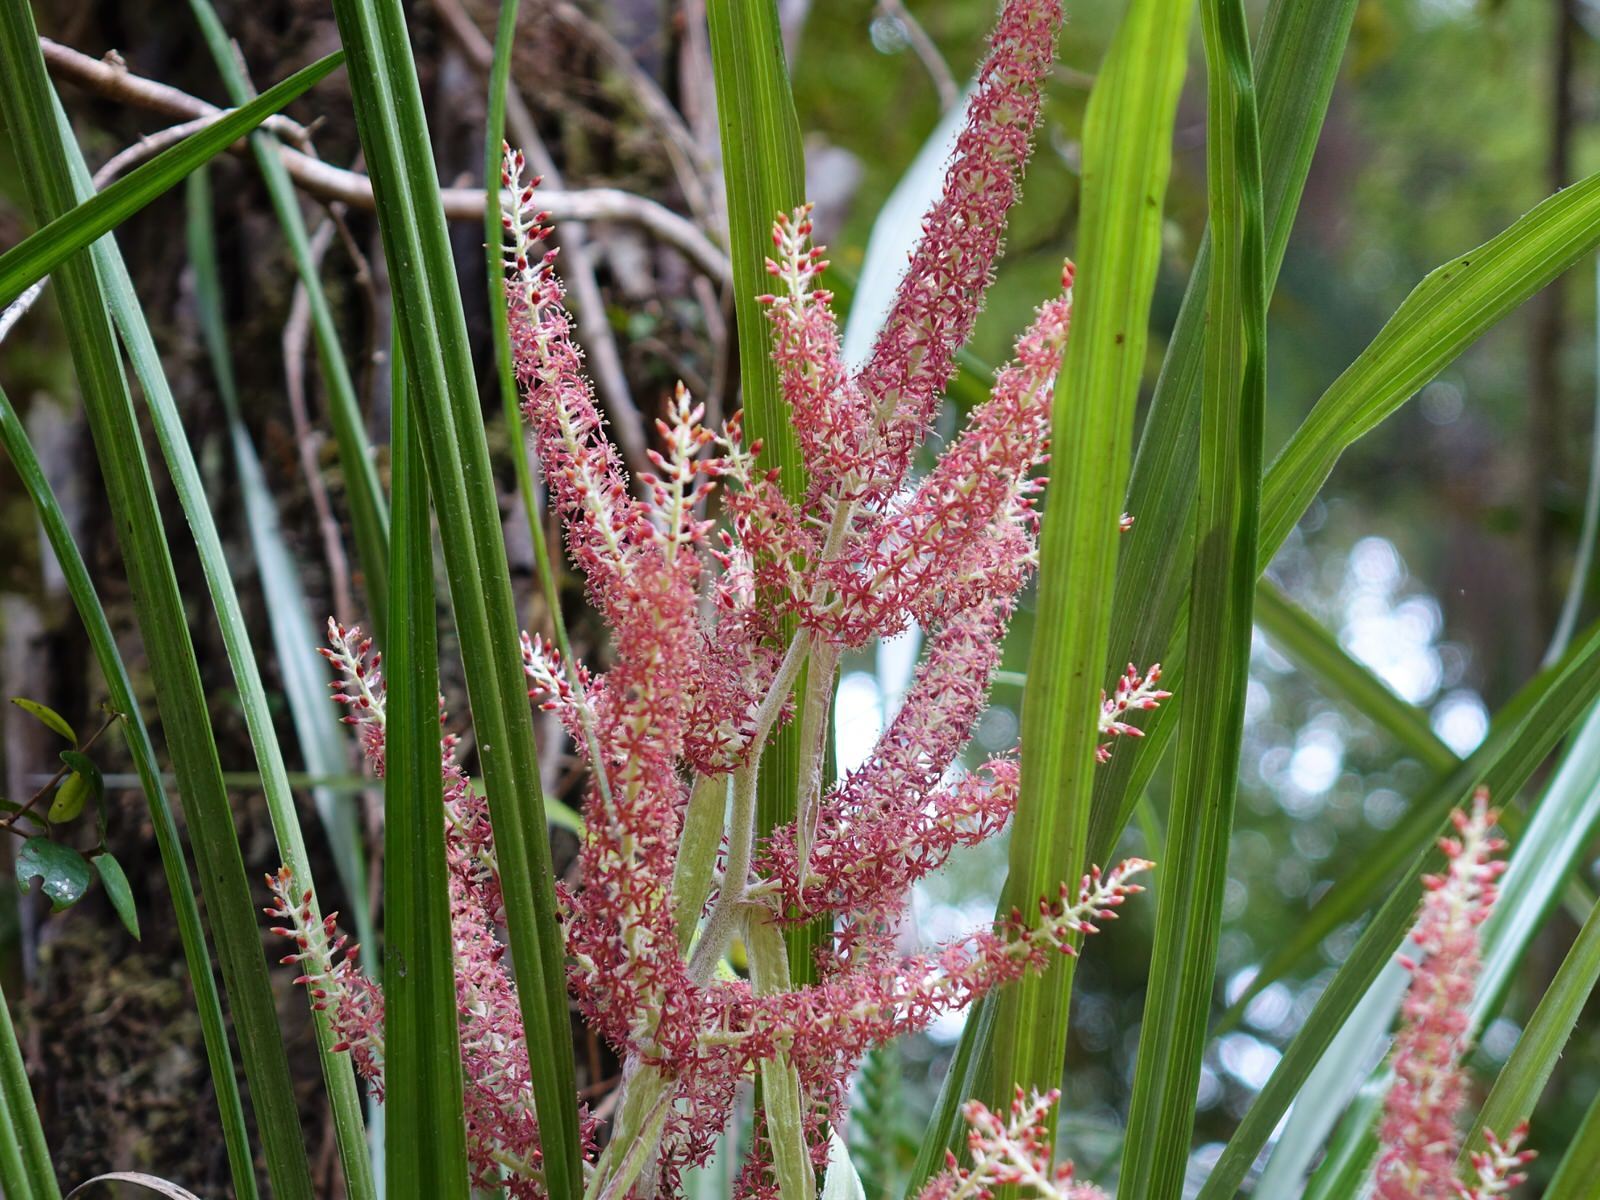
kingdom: Plantae
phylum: Tracheophyta
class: Liliopsida
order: Asparagales
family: Asteliaceae
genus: Astelia
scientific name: Astelia solandri
